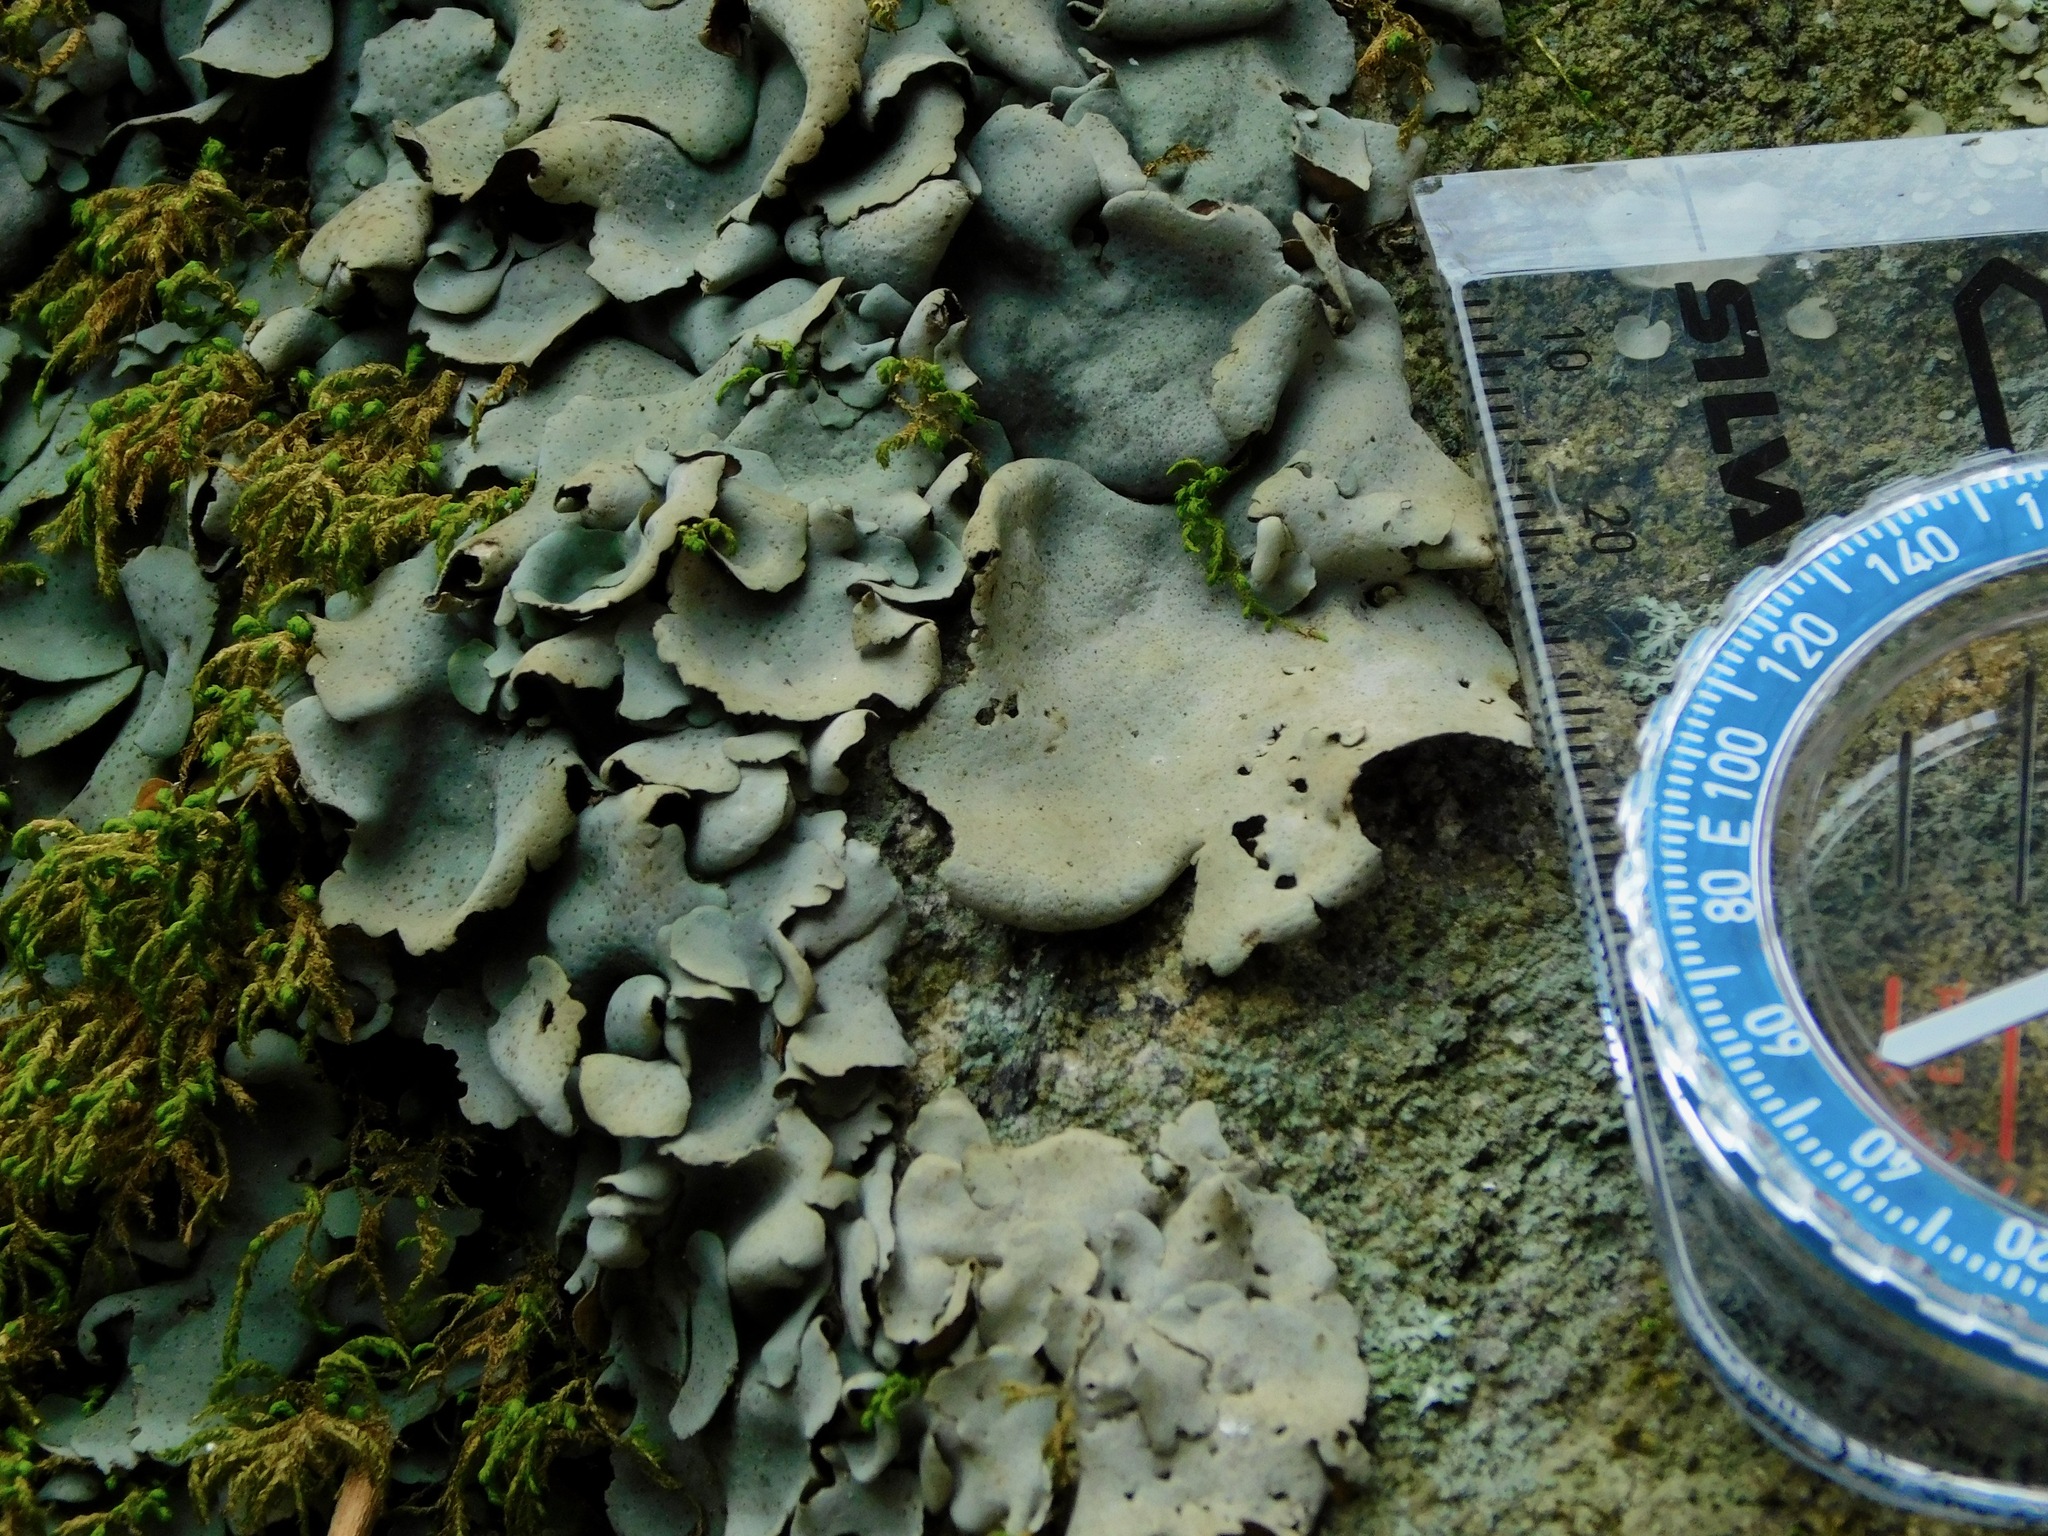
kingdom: Fungi
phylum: Ascomycota
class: Eurotiomycetes
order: Verrucariales
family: Verrucariaceae
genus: Dermatocarpon
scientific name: Dermatocarpon muhlenbergii
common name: Muhlenberg's stippleback lichen
